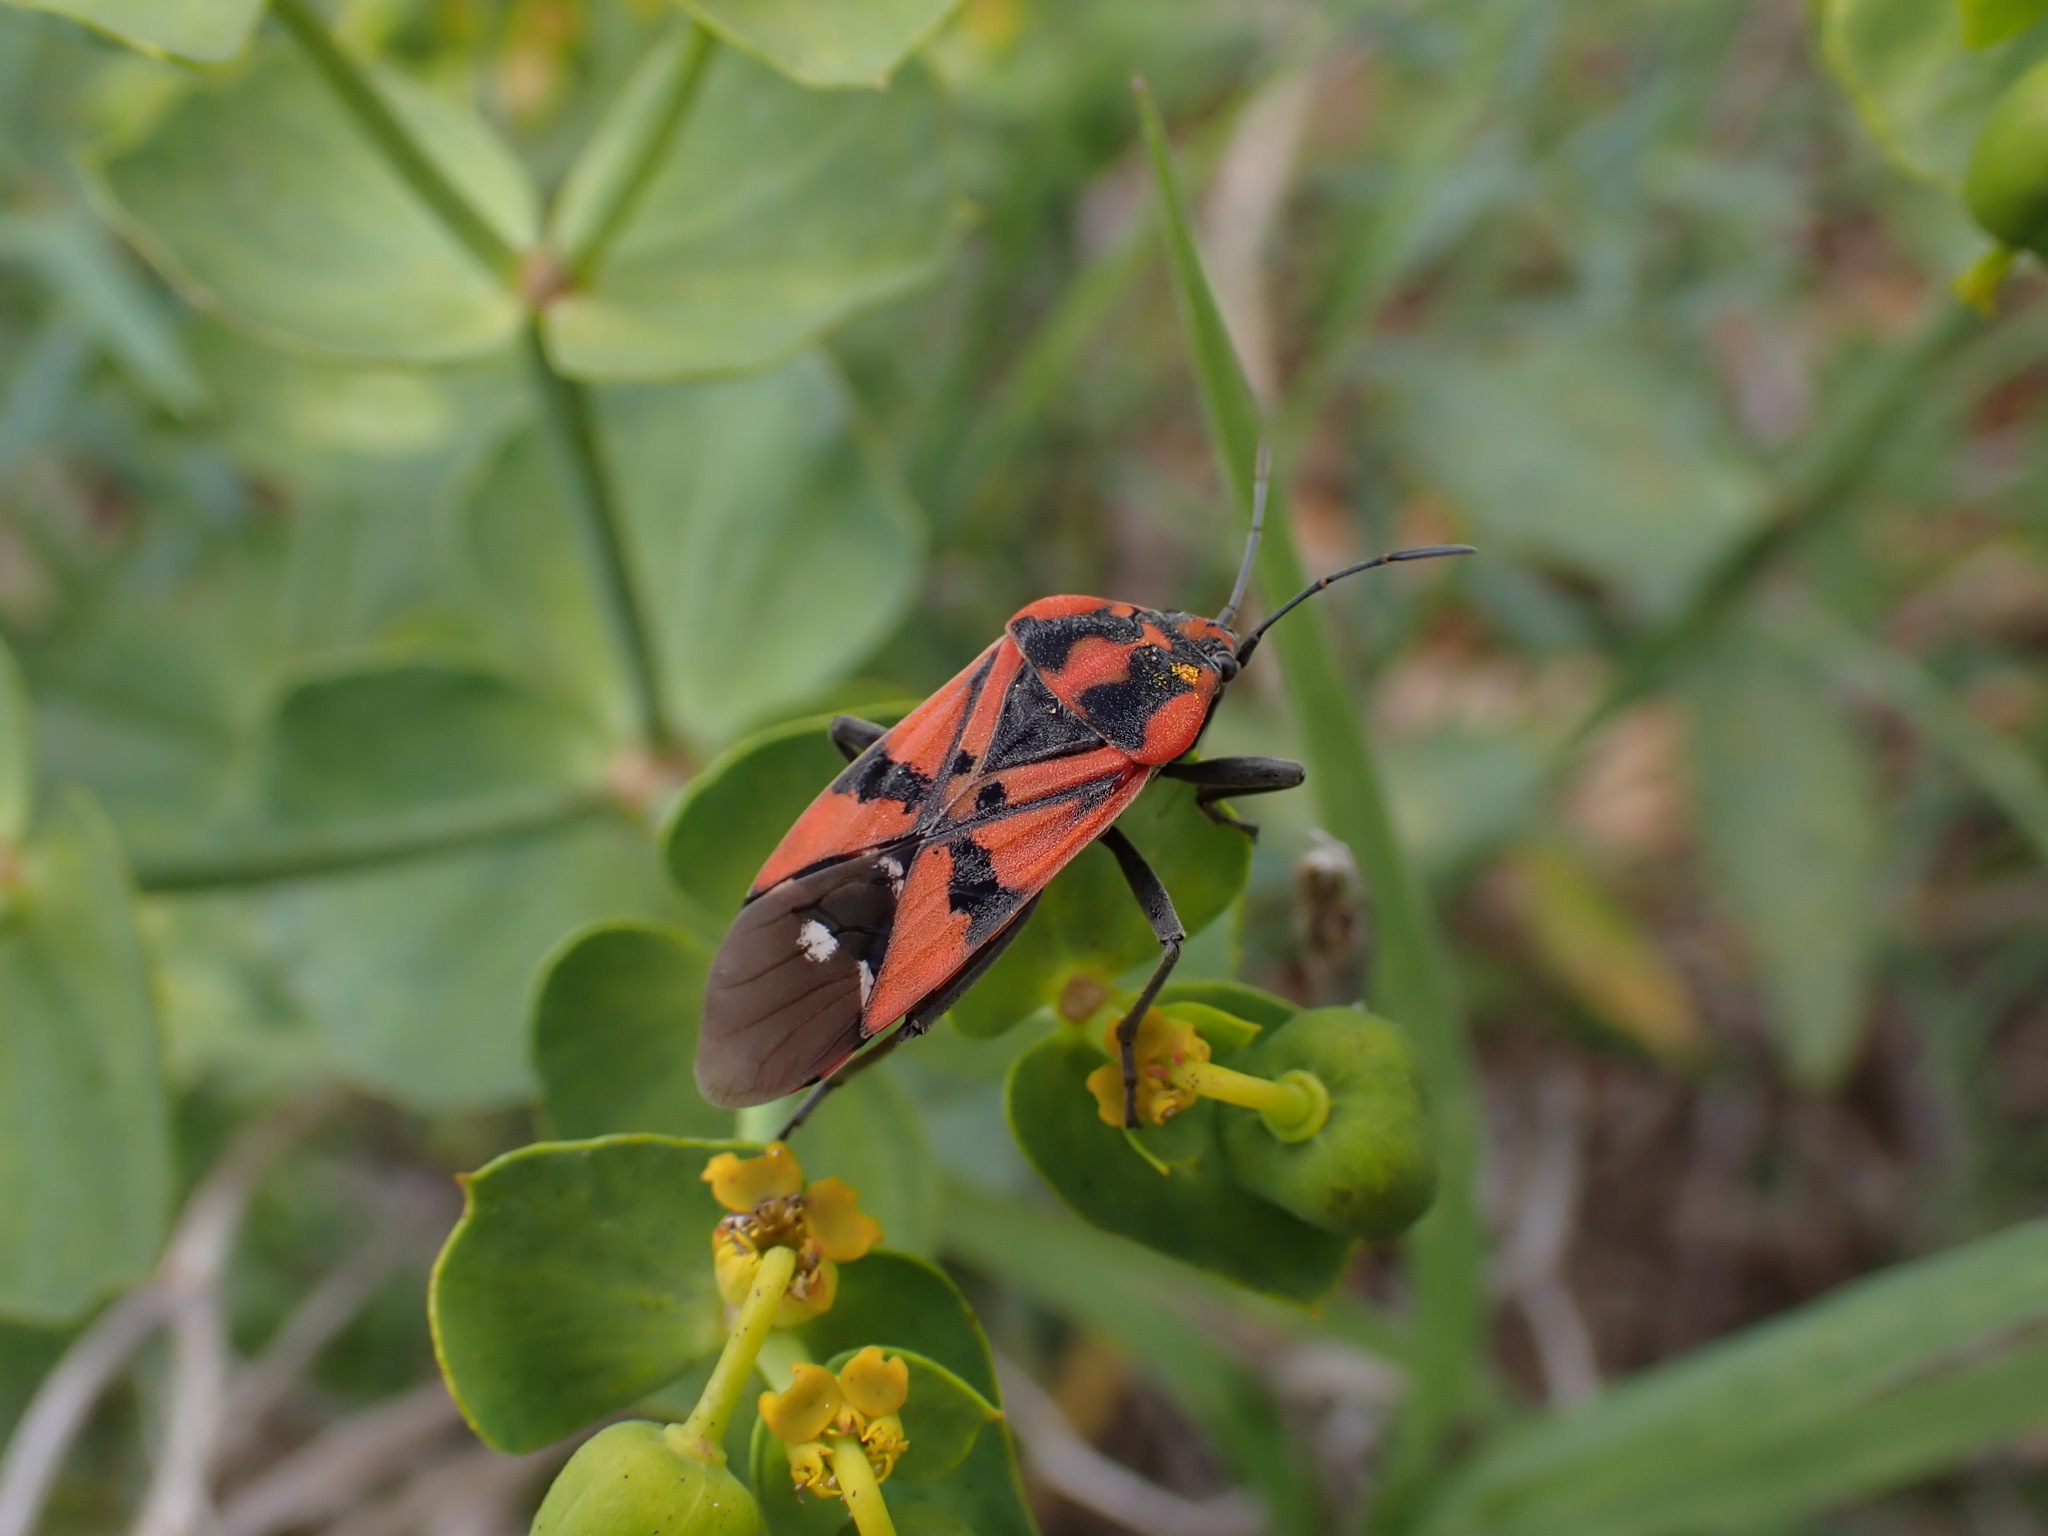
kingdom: Animalia
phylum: Arthropoda
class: Insecta
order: Hemiptera
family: Lygaeidae
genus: Spilostethus
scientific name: Spilostethus pandurus
